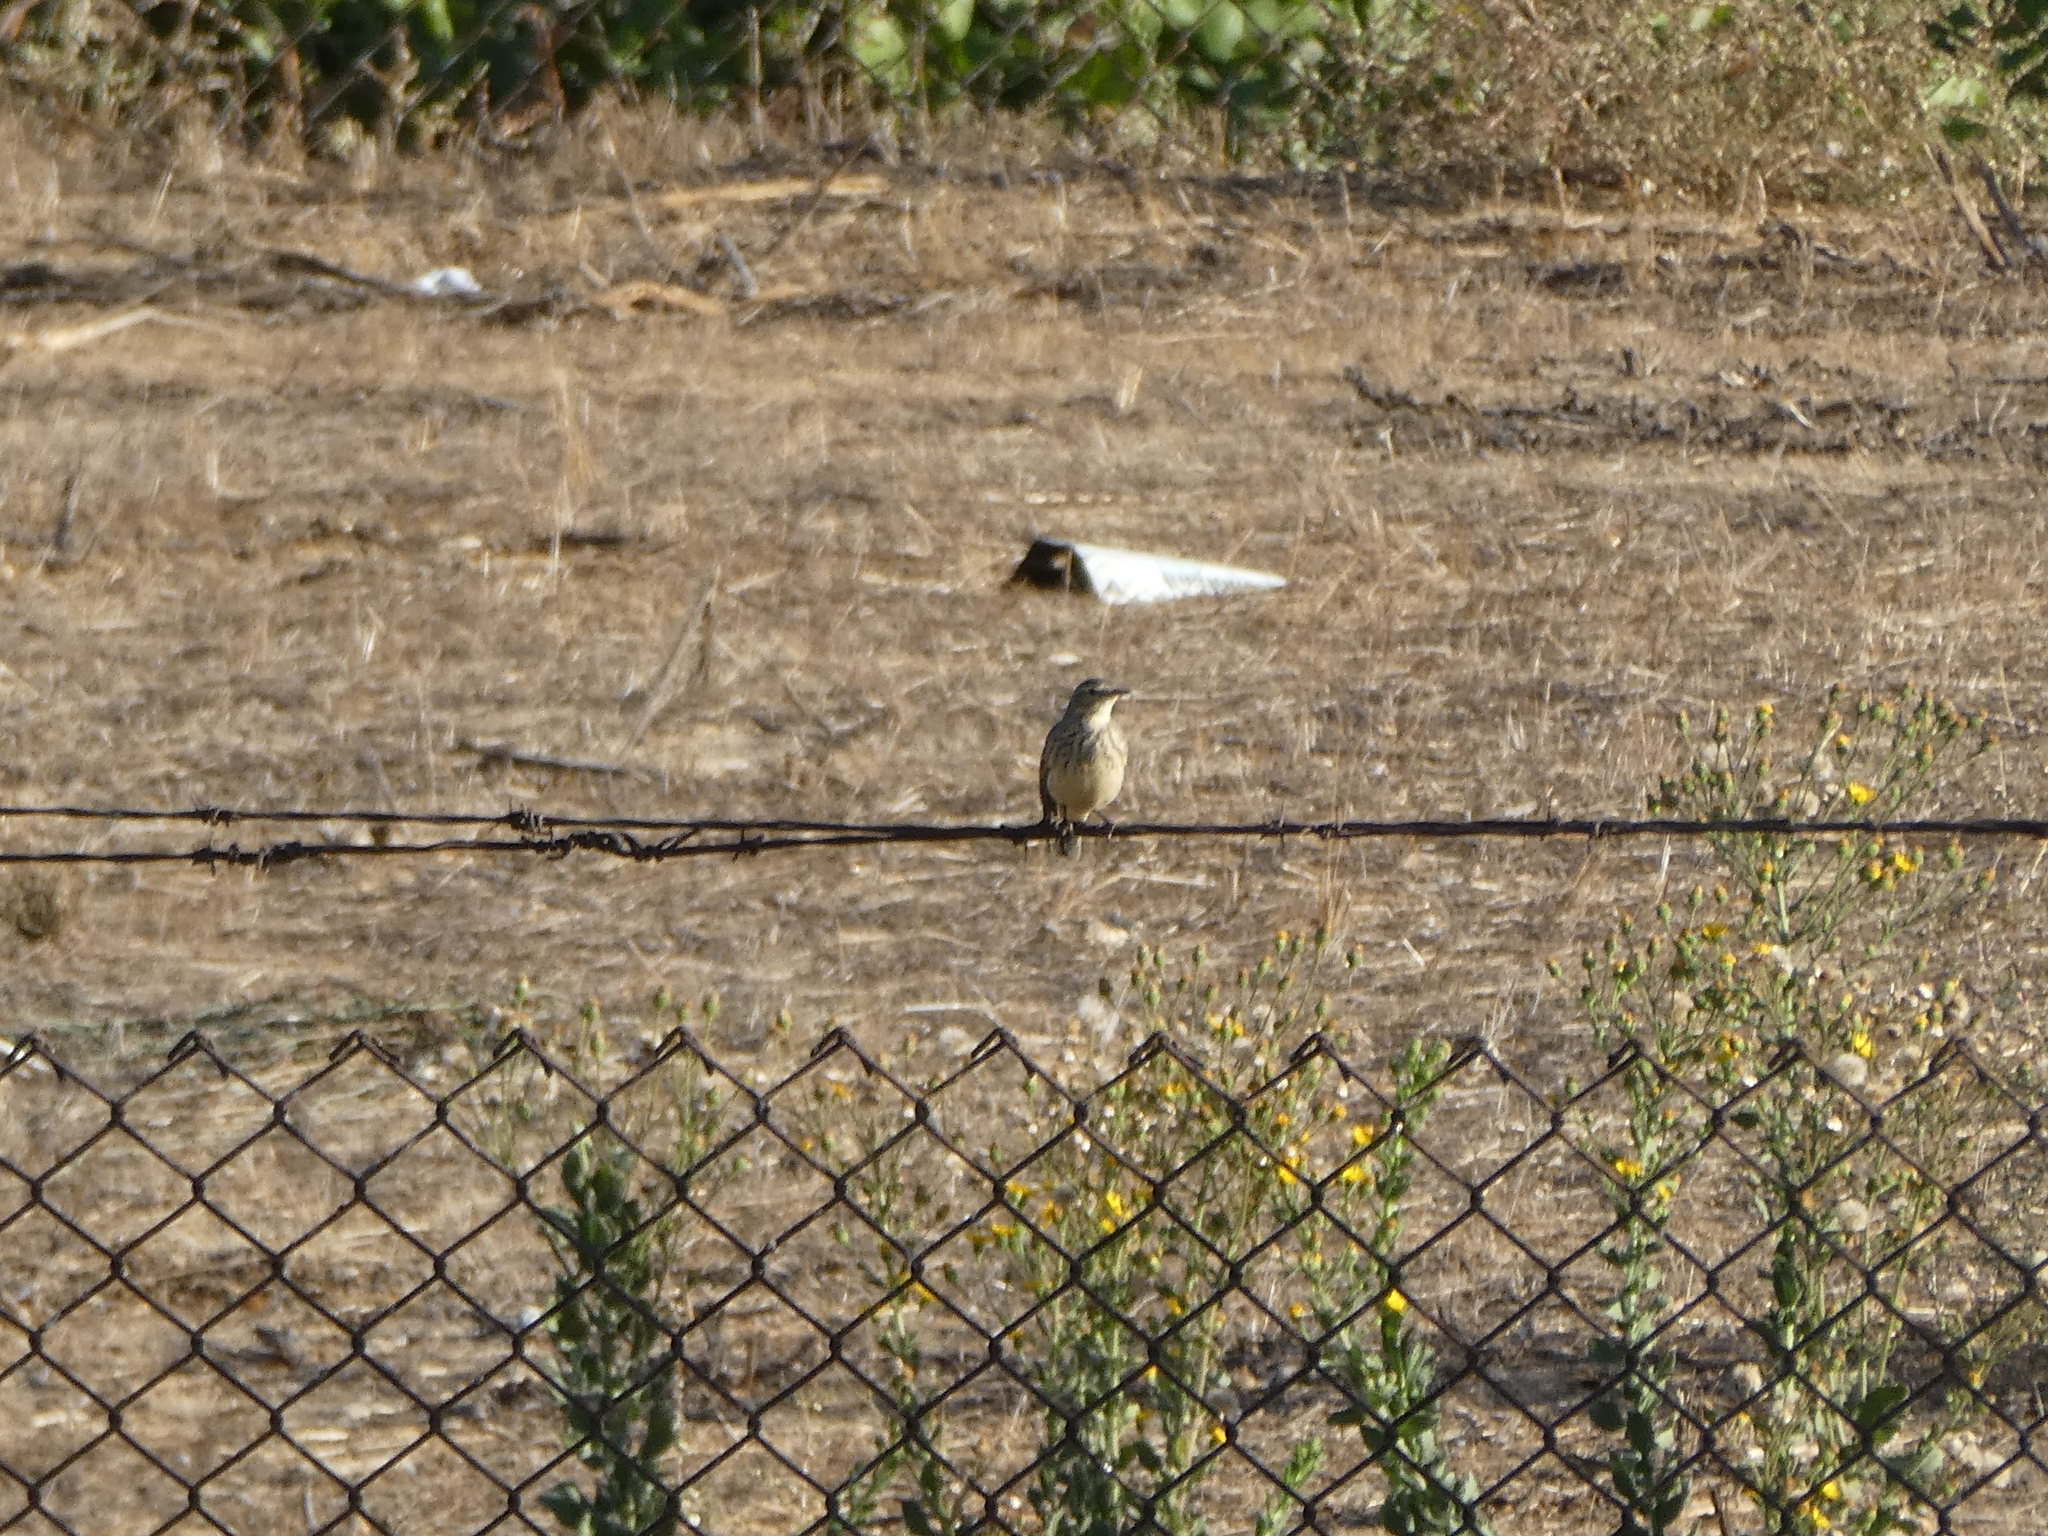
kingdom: Animalia
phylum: Chordata
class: Aves
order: Passeriformes
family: Motacillidae
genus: Anthus
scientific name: Anthus rubescens
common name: Buff-bellied pipit
